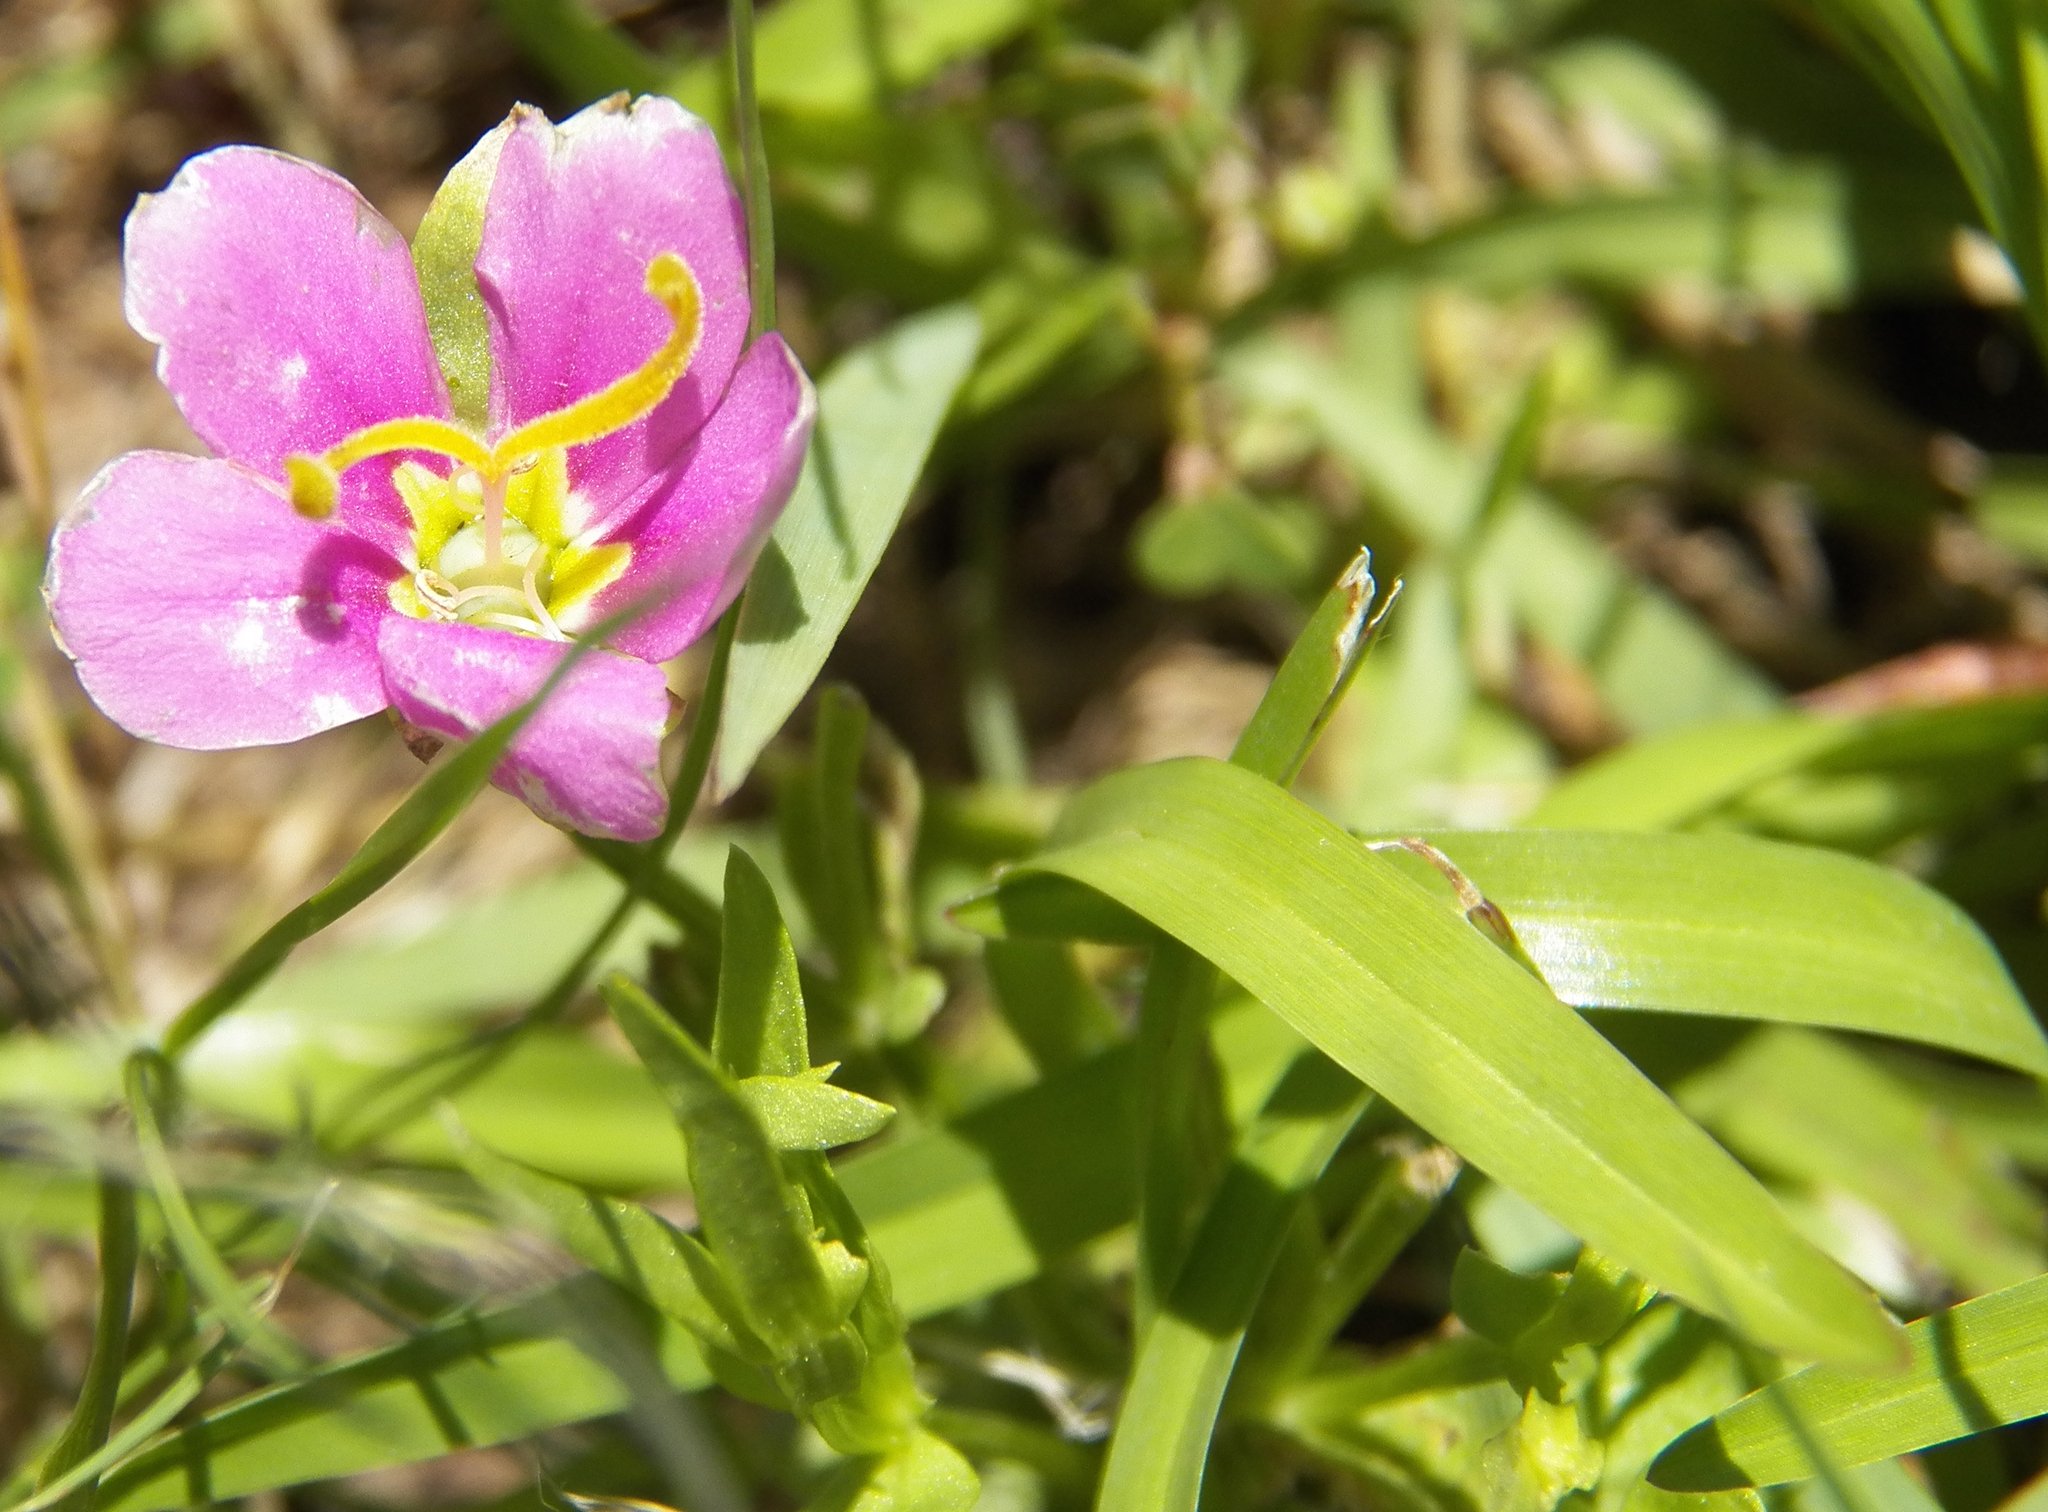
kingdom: Plantae
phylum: Tracheophyta
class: Magnoliopsida
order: Gentianales
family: Gentianaceae
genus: Sabatia
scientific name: Sabatia campestris
